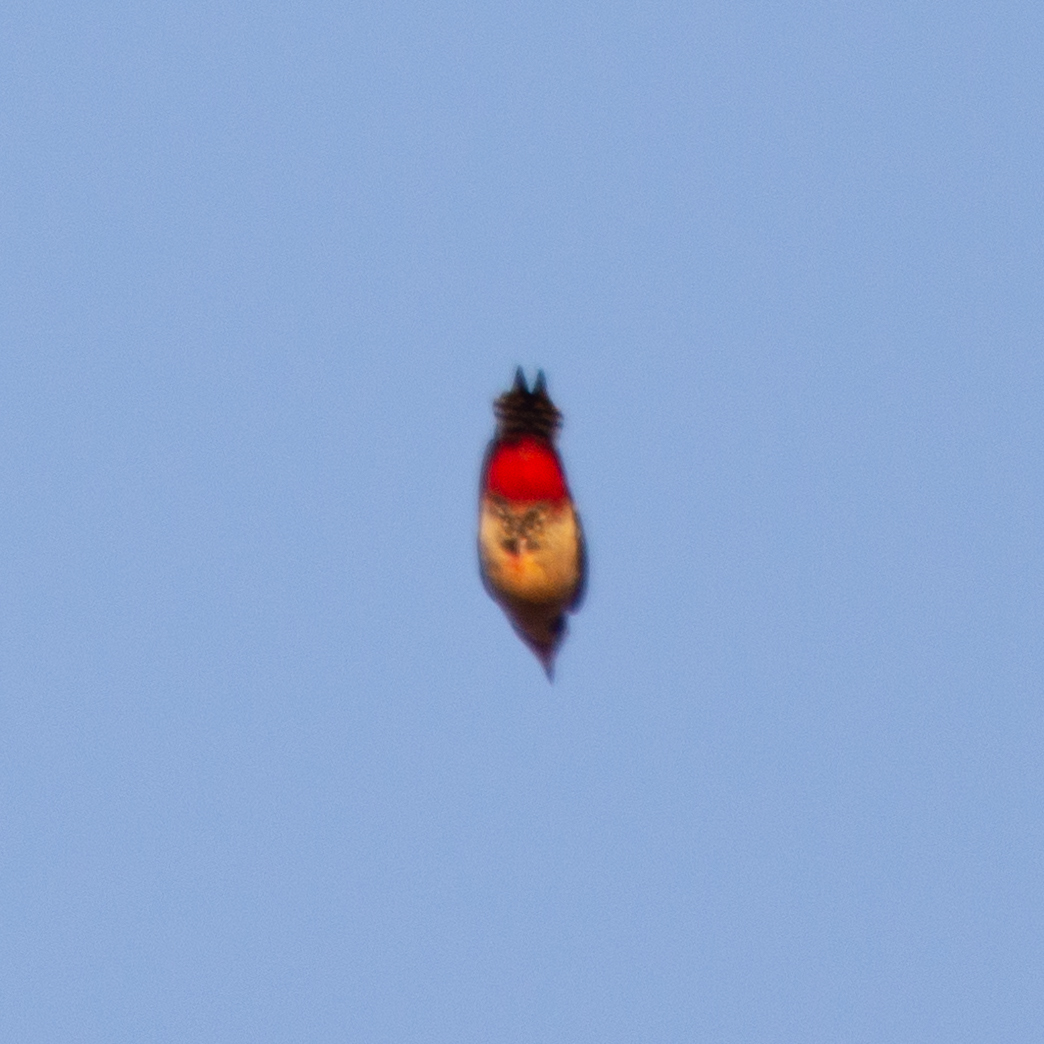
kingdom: Animalia
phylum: Chordata
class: Aves
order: Piciformes
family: Picidae
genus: Dendrocopos
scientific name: Dendrocopos major
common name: Great spotted woodpecker
